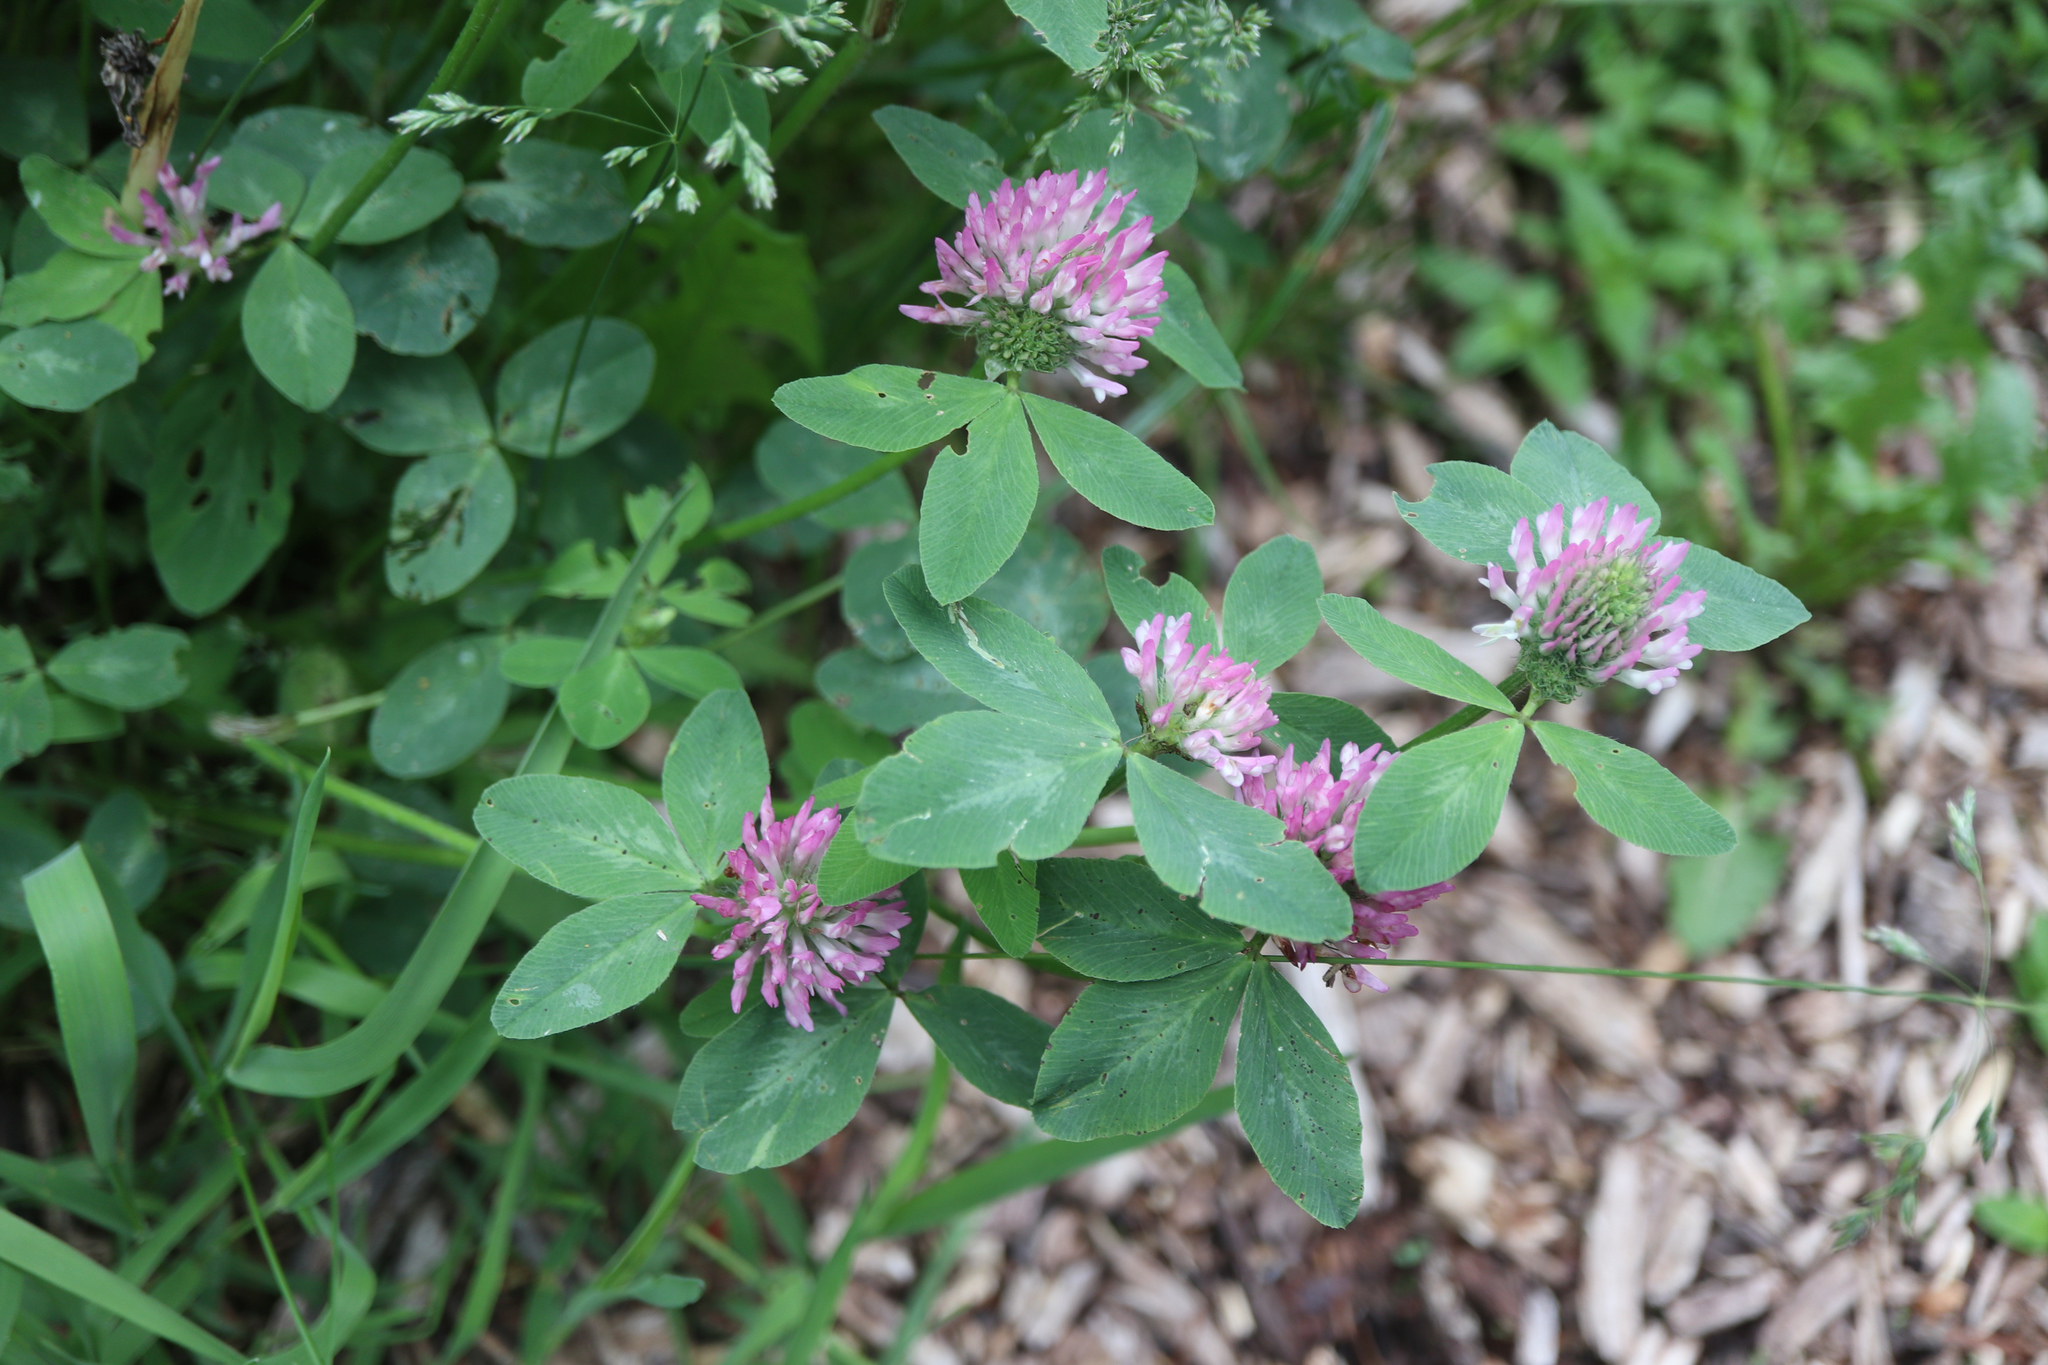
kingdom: Plantae
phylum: Tracheophyta
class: Magnoliopsida
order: Fabales
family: Fabaceae
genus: Trifolium
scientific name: Trifolium pratense
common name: Red clover
